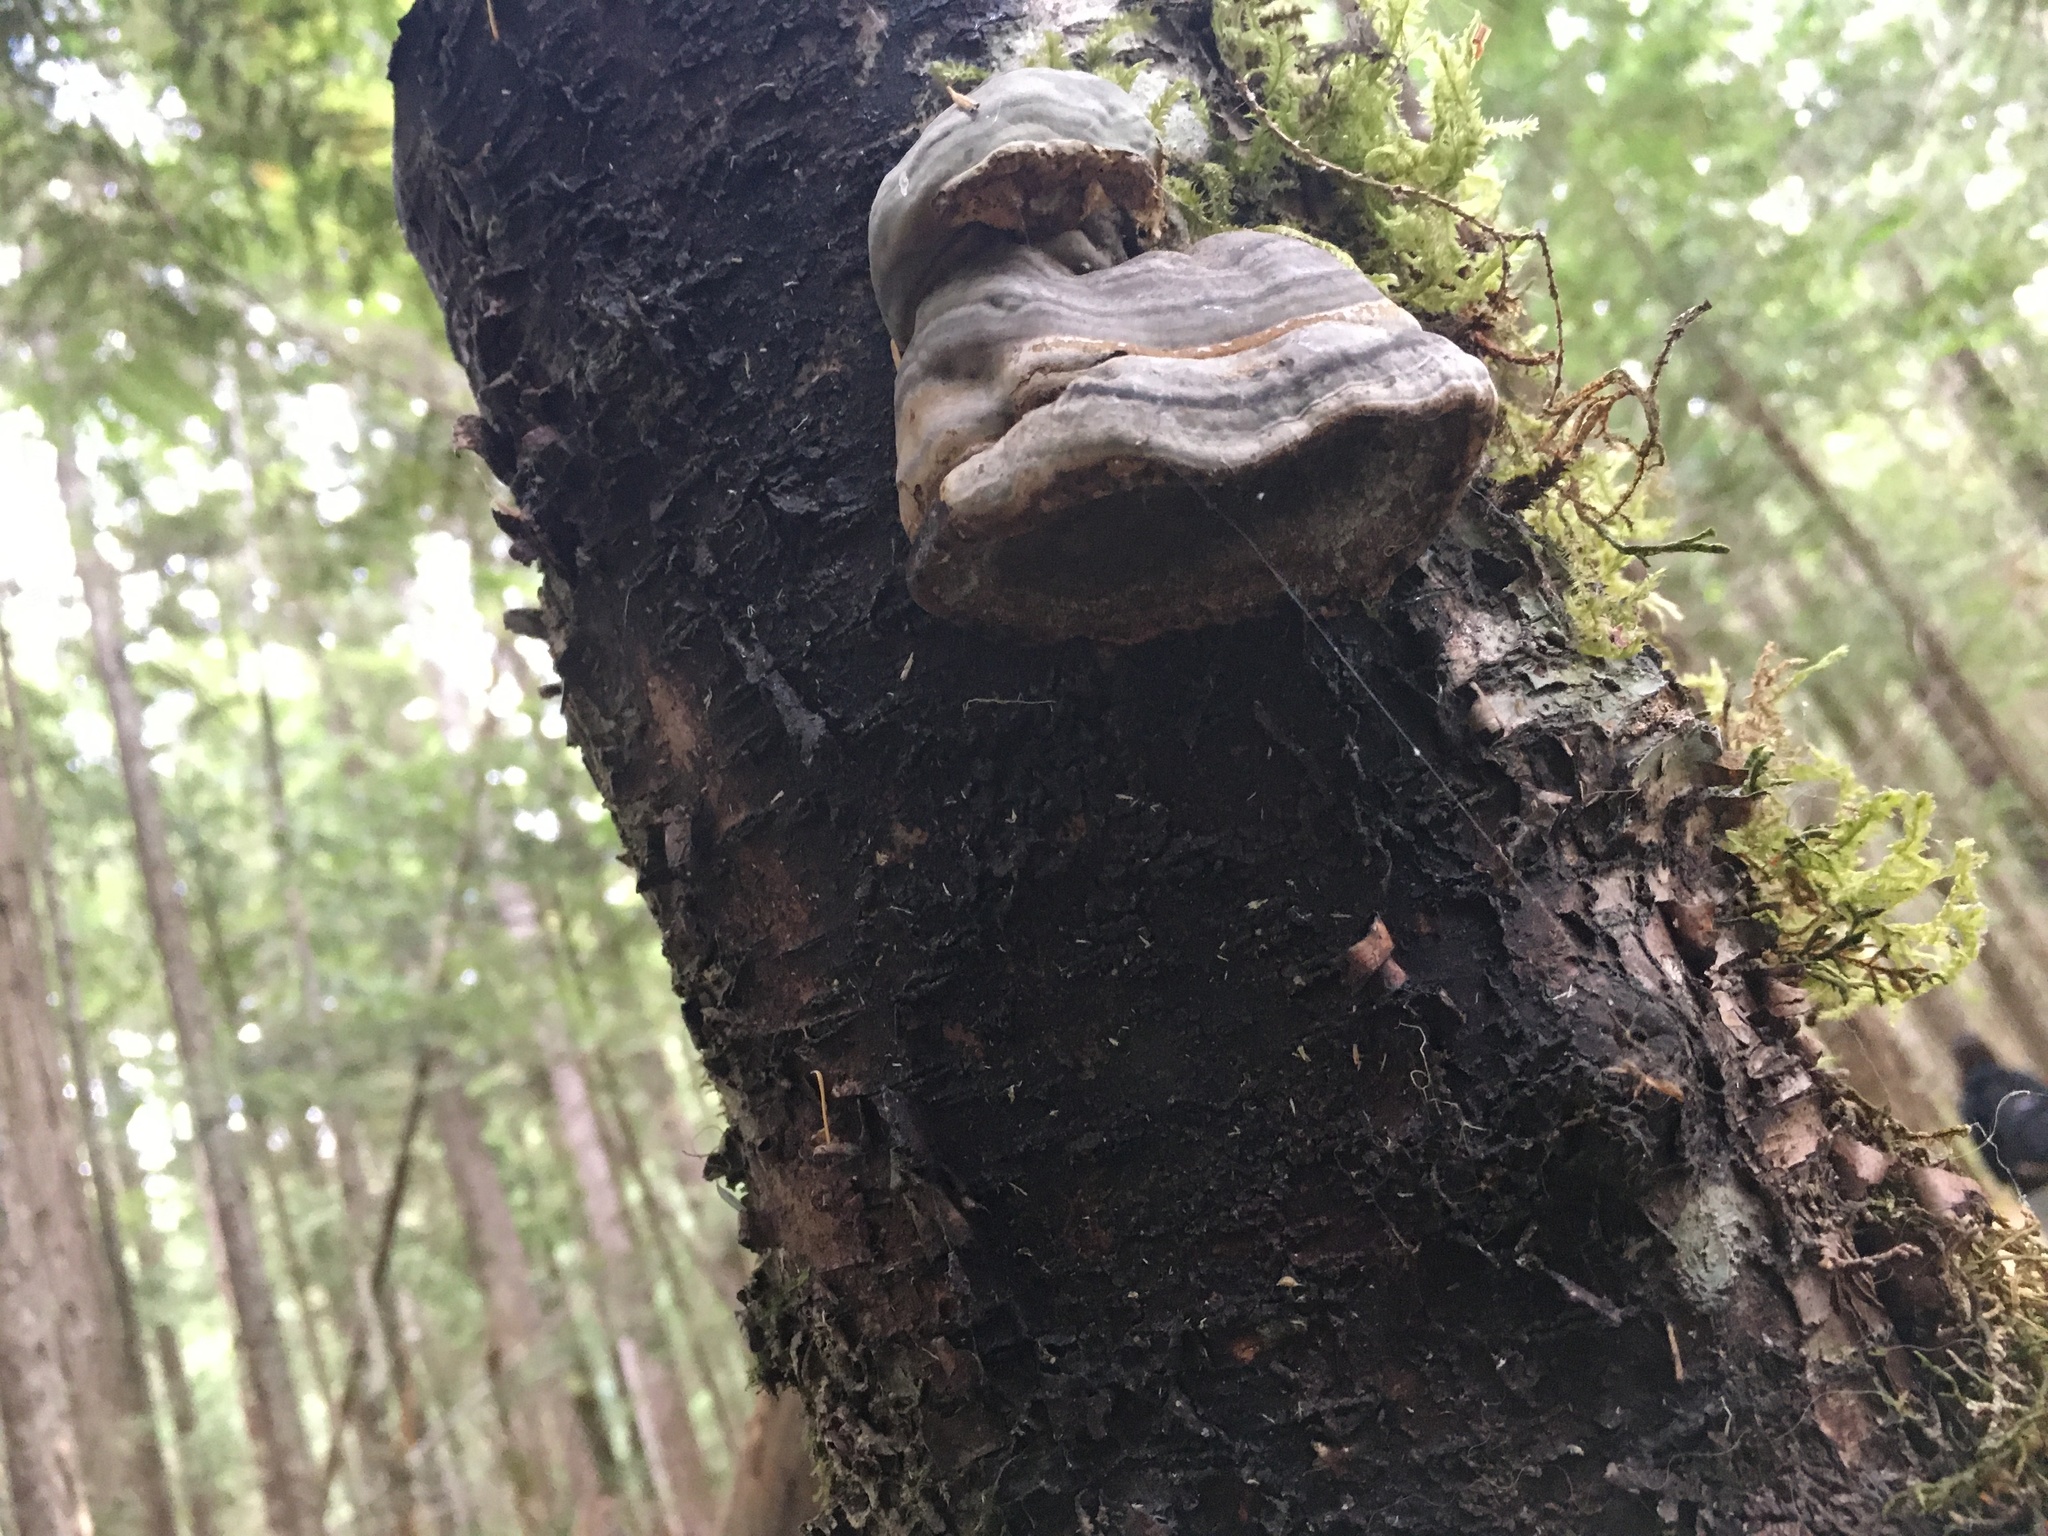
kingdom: Fungi
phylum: Basidiomycota
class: Agaricomycetes
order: Polyporales
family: Polyporaceae
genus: Fomes
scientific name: Fomes fomentarius
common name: Hoof fungus
